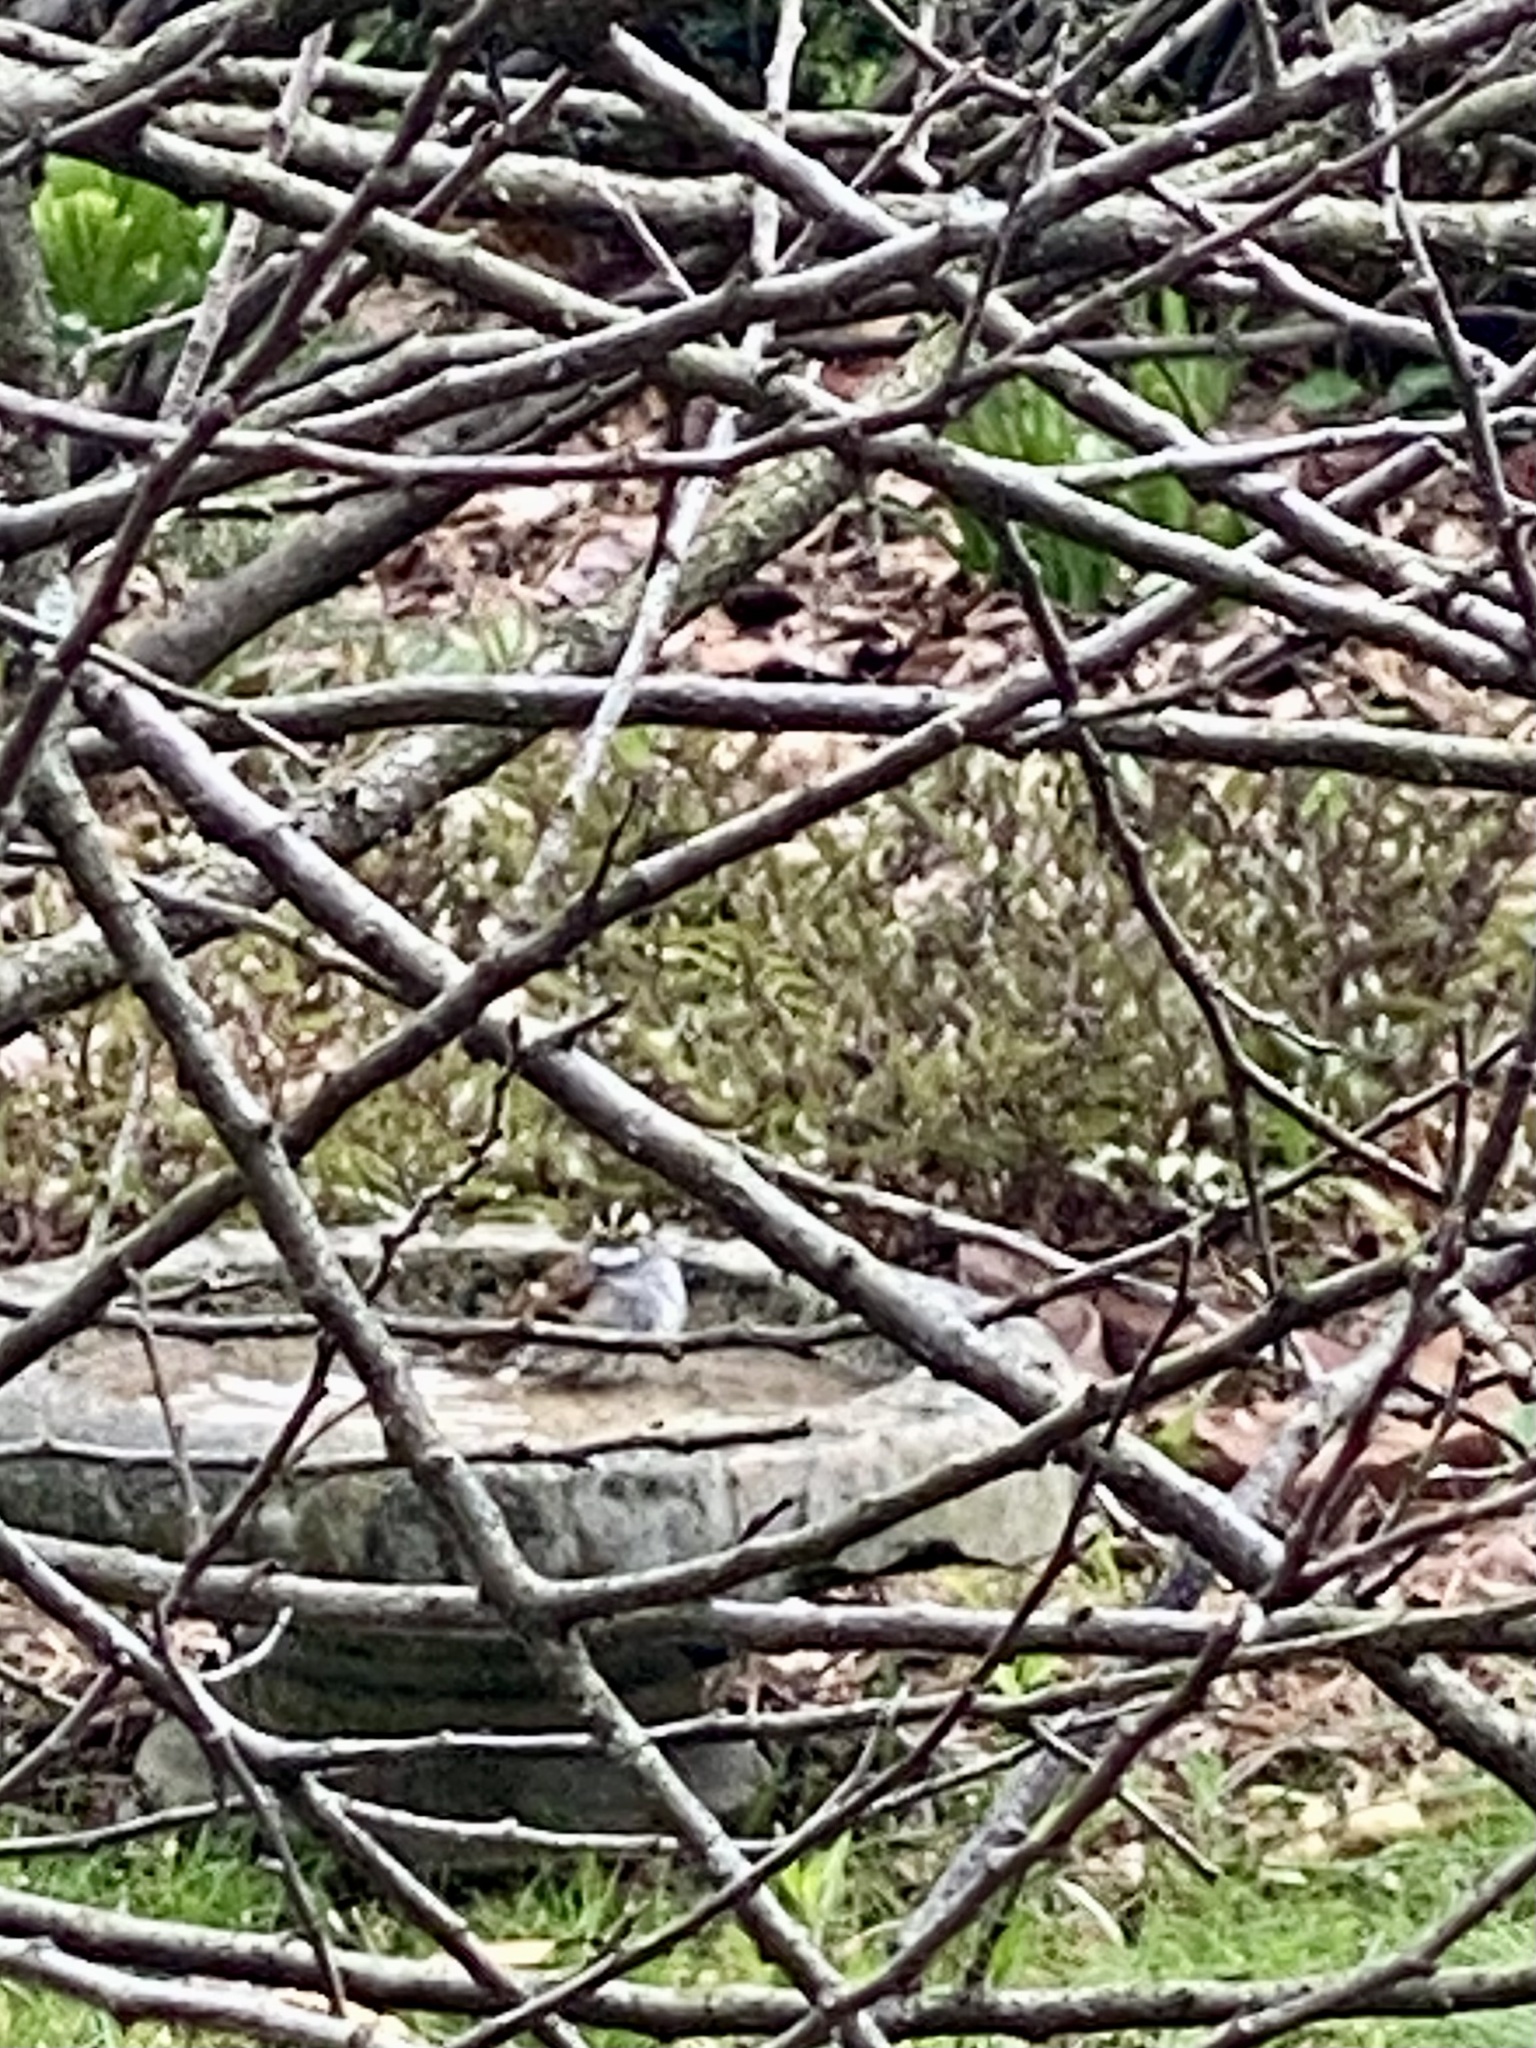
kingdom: Animalia
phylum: Chordata
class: Aves
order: Passeriformes
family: Passerellidae
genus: Zonotrichia
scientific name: Zonotrichia albicollis
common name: White-throated sparrow
